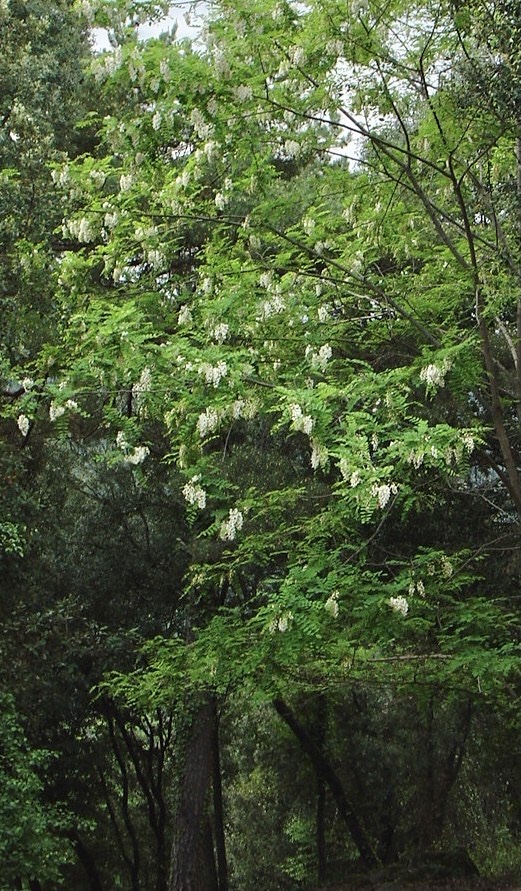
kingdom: Plantae
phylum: Tracheophyta
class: Magnoliopsida
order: Fabales
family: Fabaceae
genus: Robinia
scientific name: Robinia pseudoacacia
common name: Black locust
